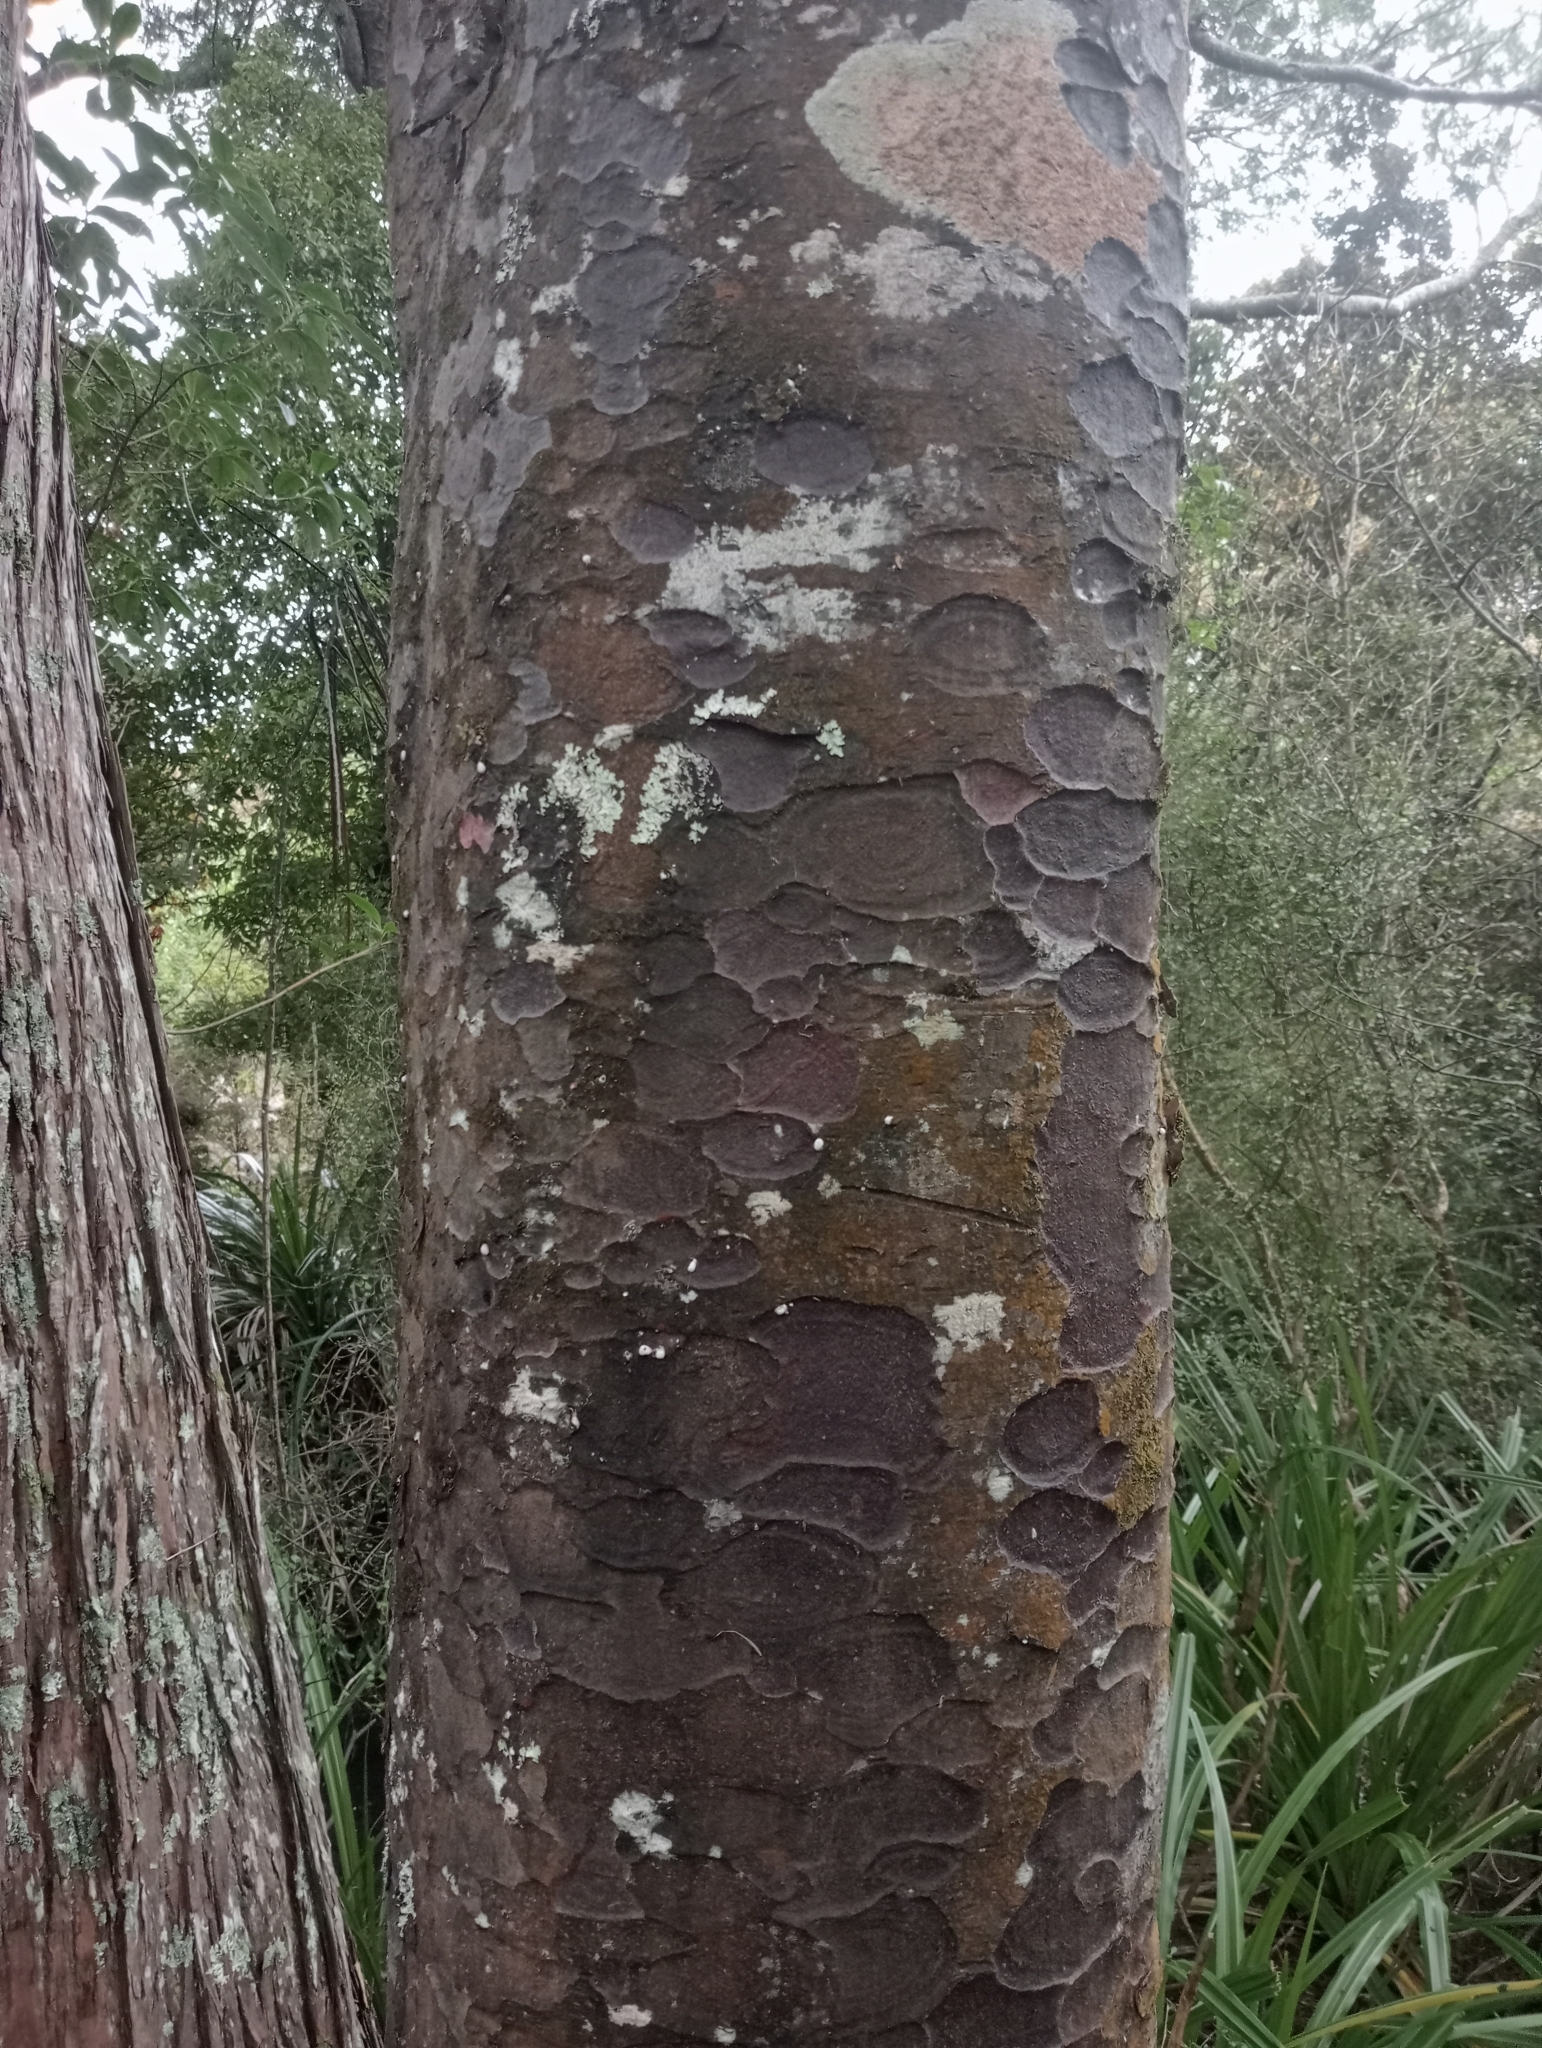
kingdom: Plantae
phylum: Tracheophyta
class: Pinopsida
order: Pinales
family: Podocarpaceae
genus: Prumnopitys
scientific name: Prumnopitys taxifolia
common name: Matai
